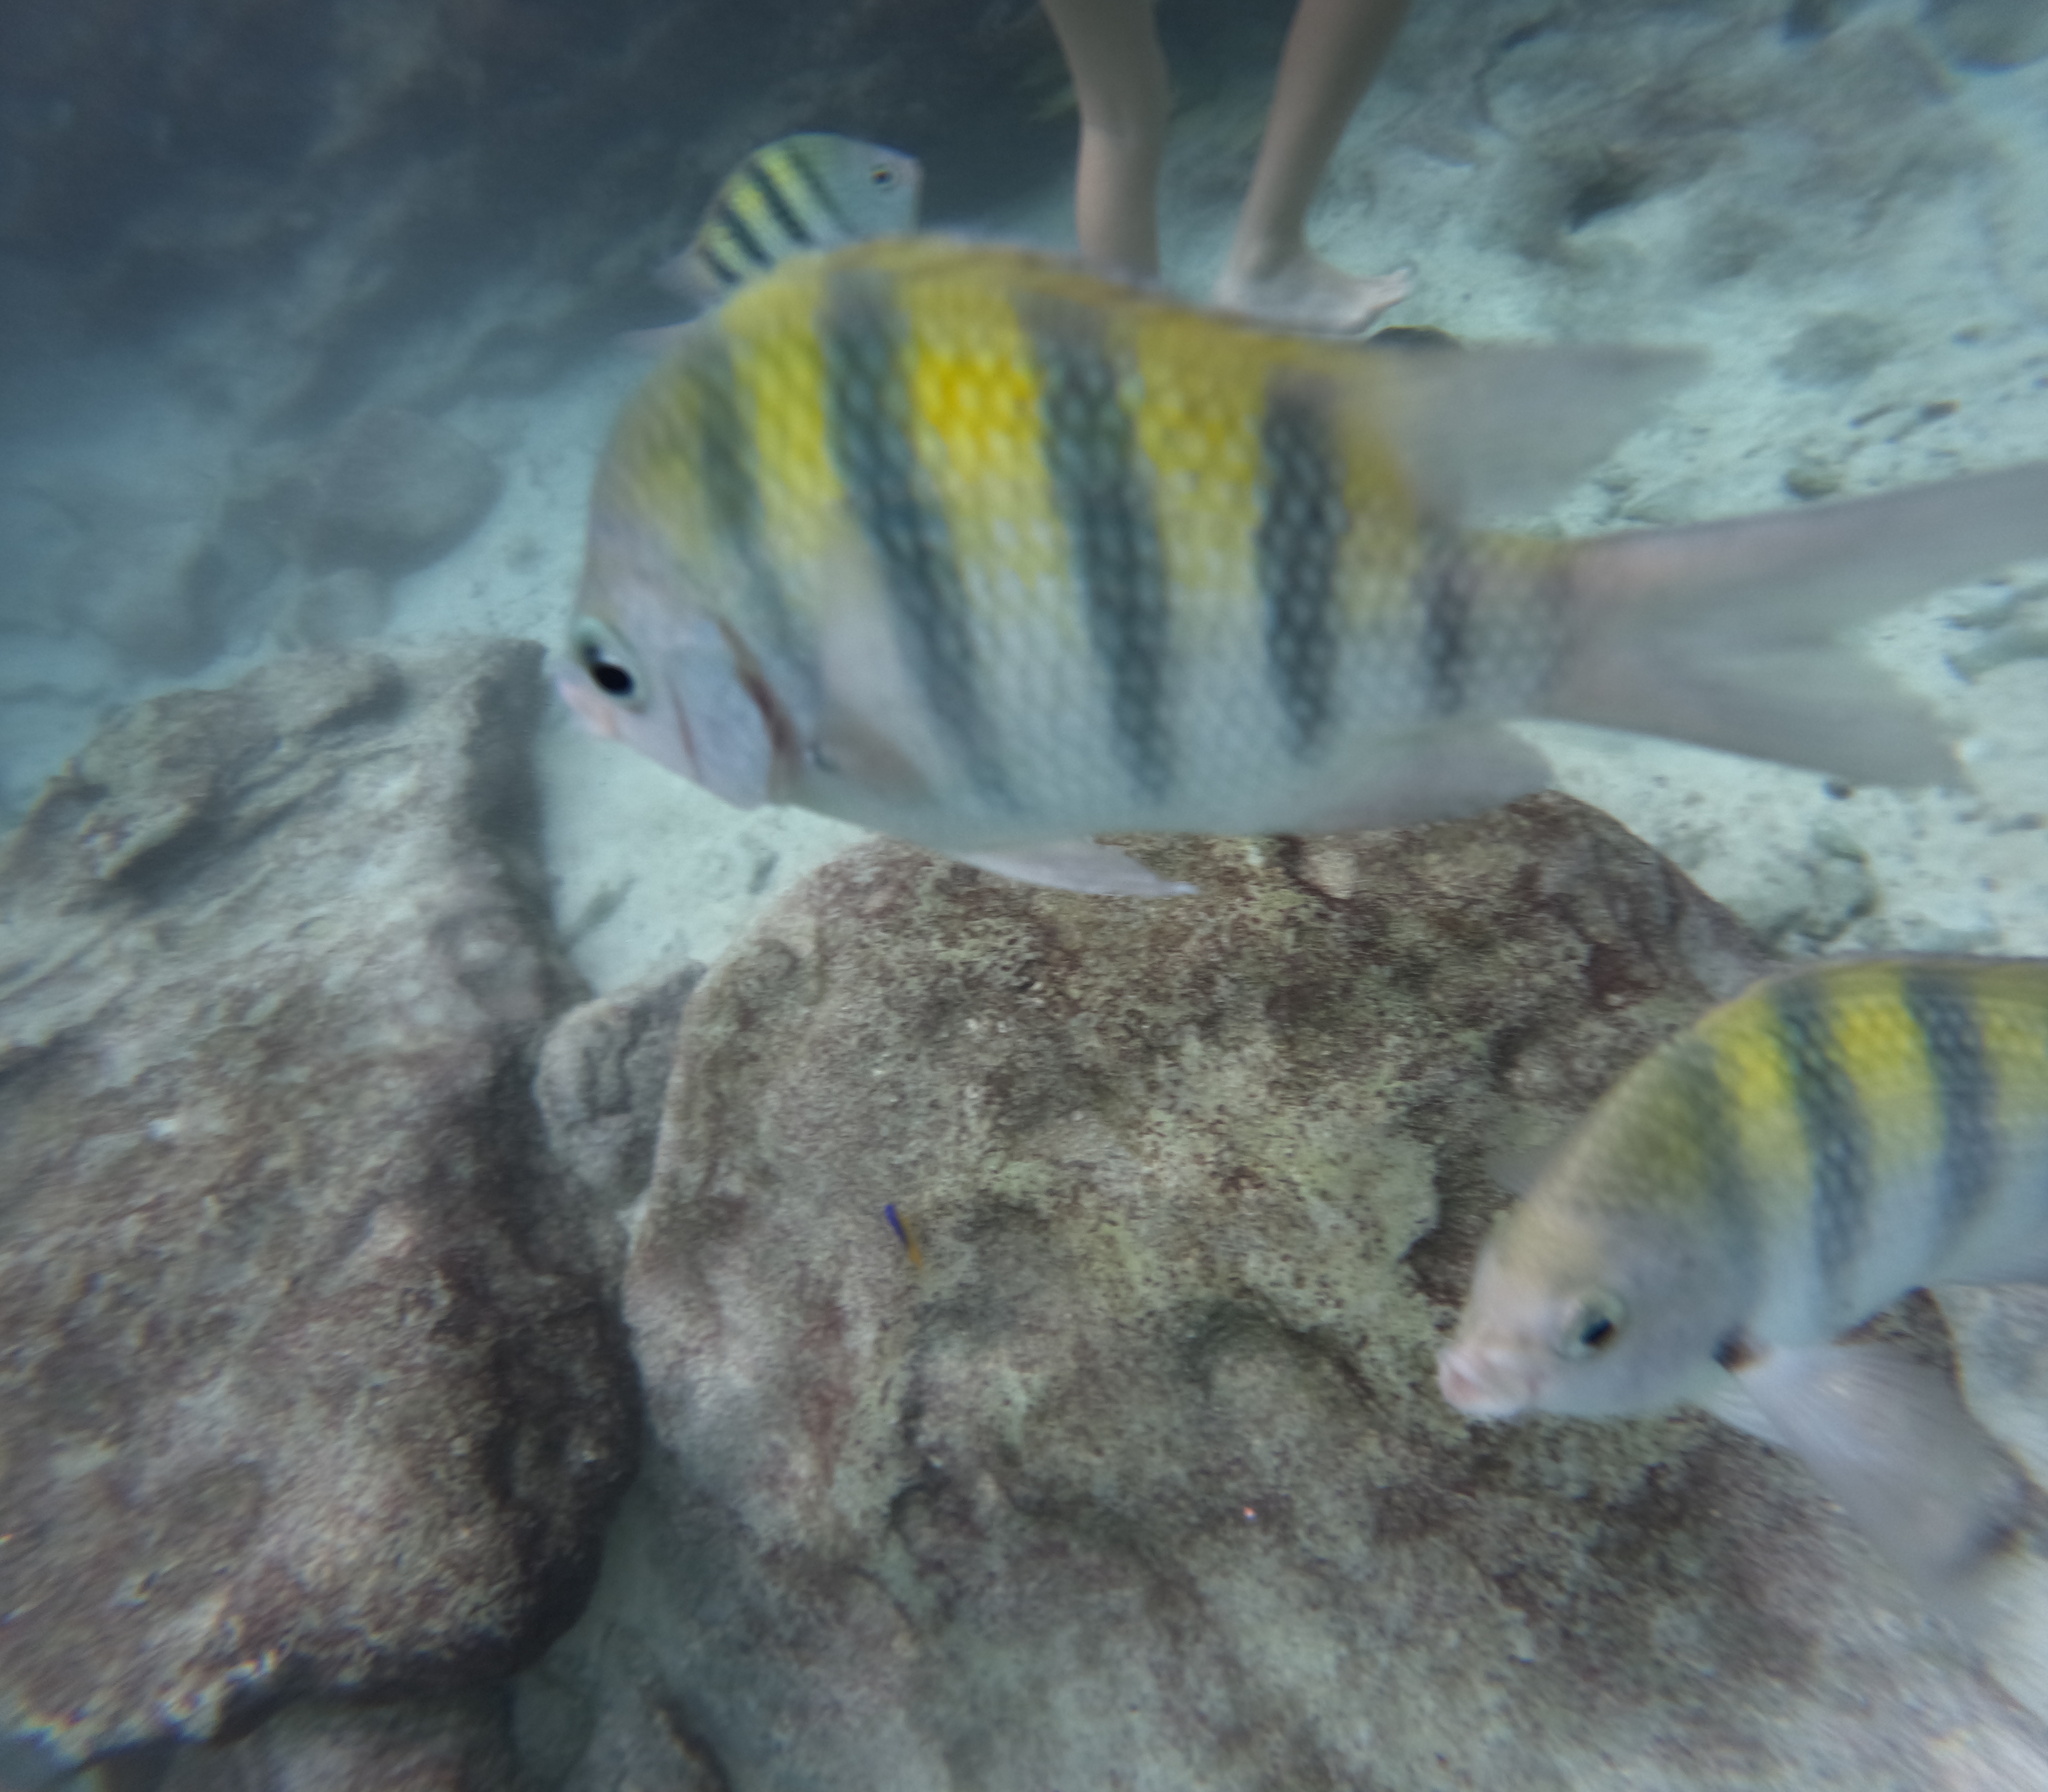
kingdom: Animalia
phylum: Chordata
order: Perciformes
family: Pomacentridae
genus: Abudefduf
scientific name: Abudefduf saxatilis
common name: Sergeant major
